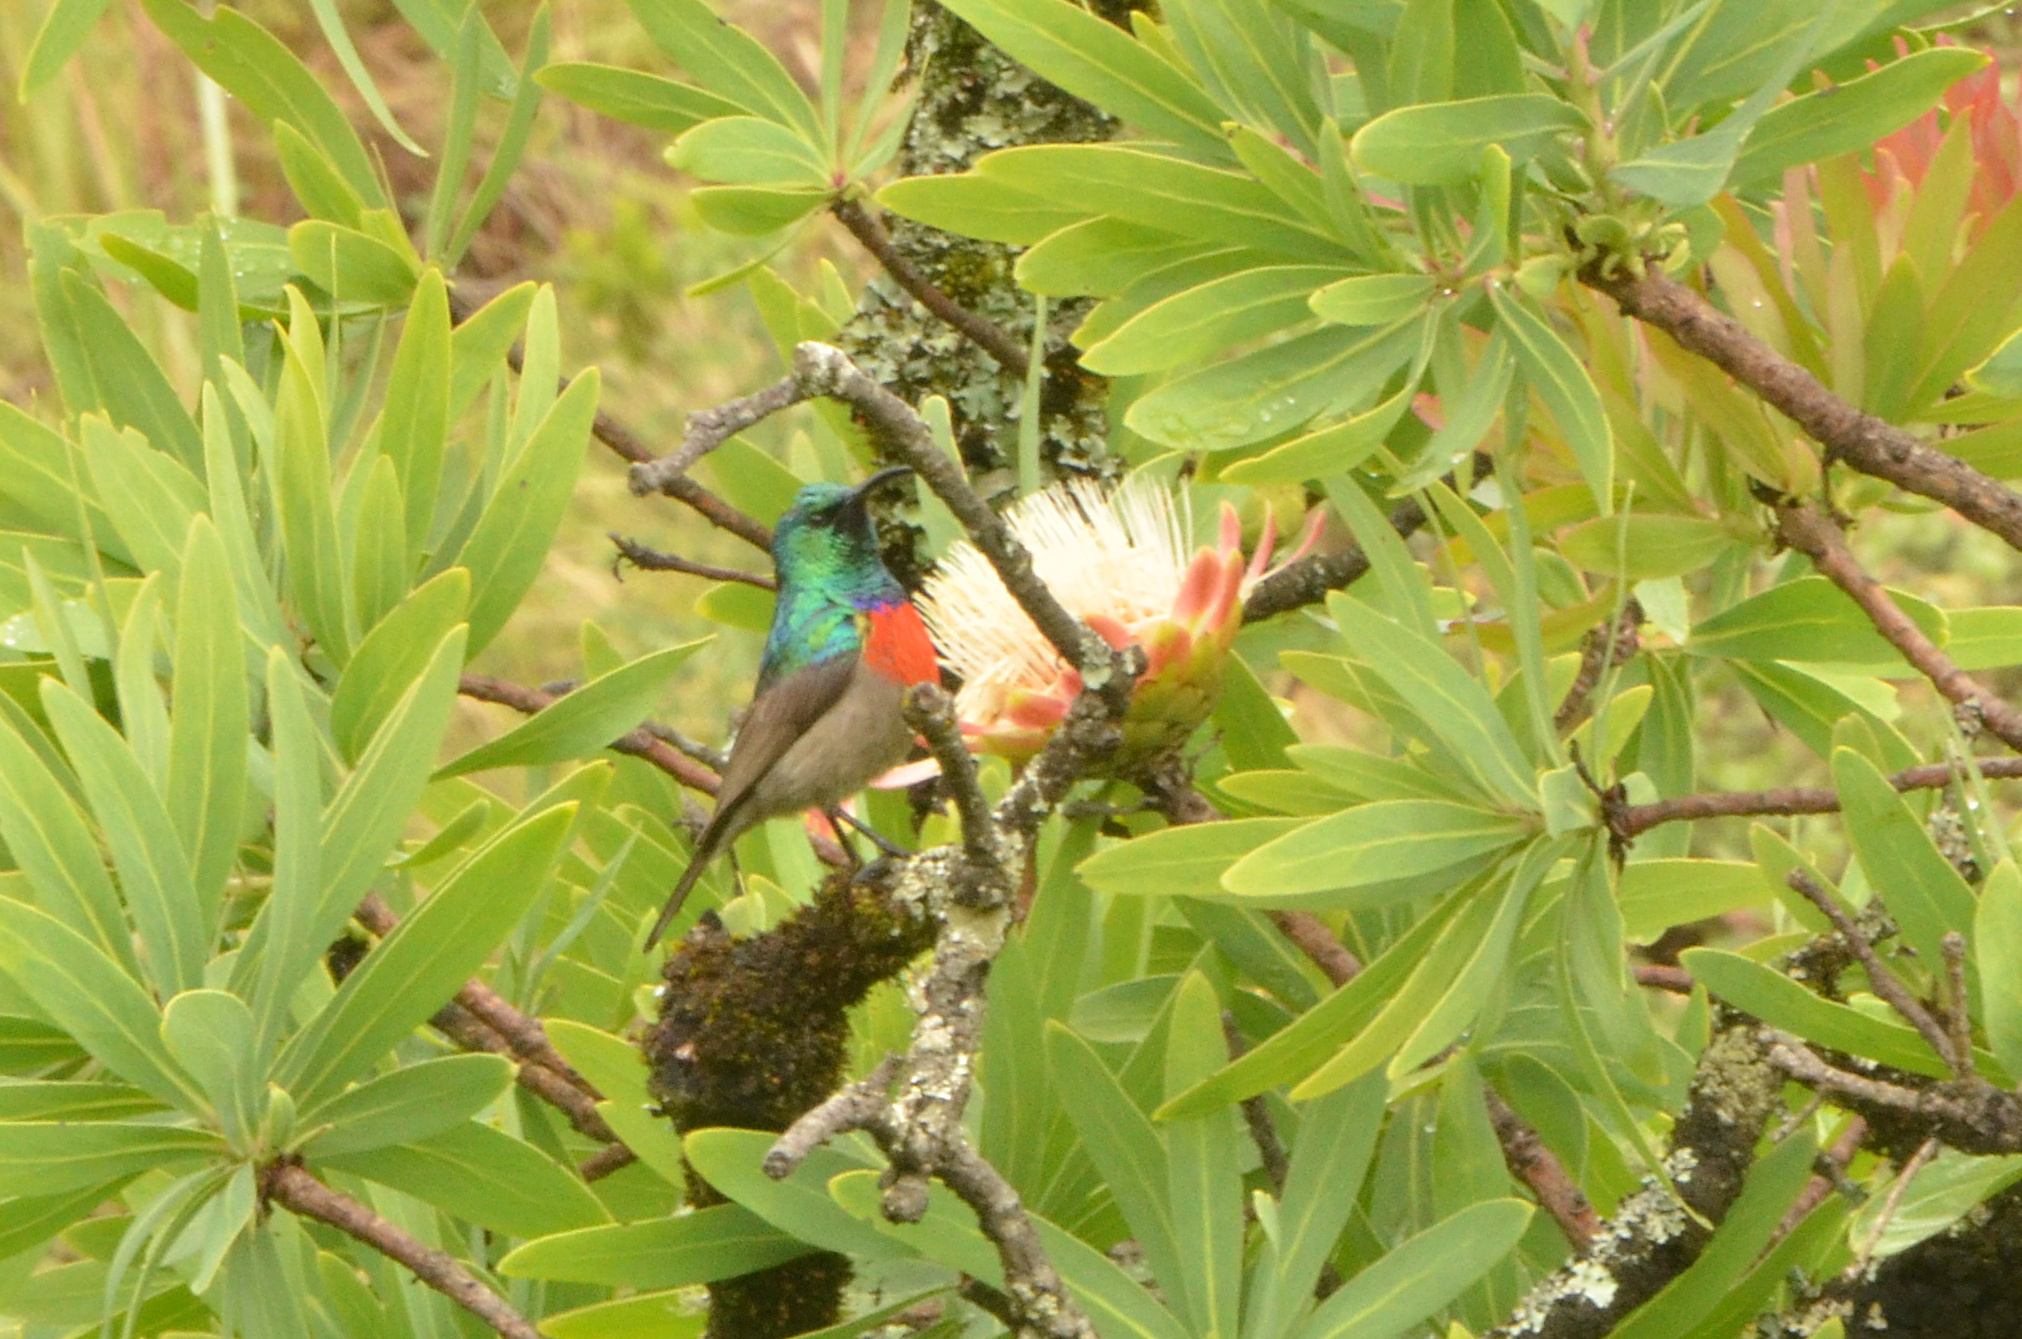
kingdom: Animalia
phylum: Chordata
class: Aves
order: Passeriformes
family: Nectariniidae
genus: Cinnyris
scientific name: Cinnyris afer
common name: Greater double-collared sunbird
